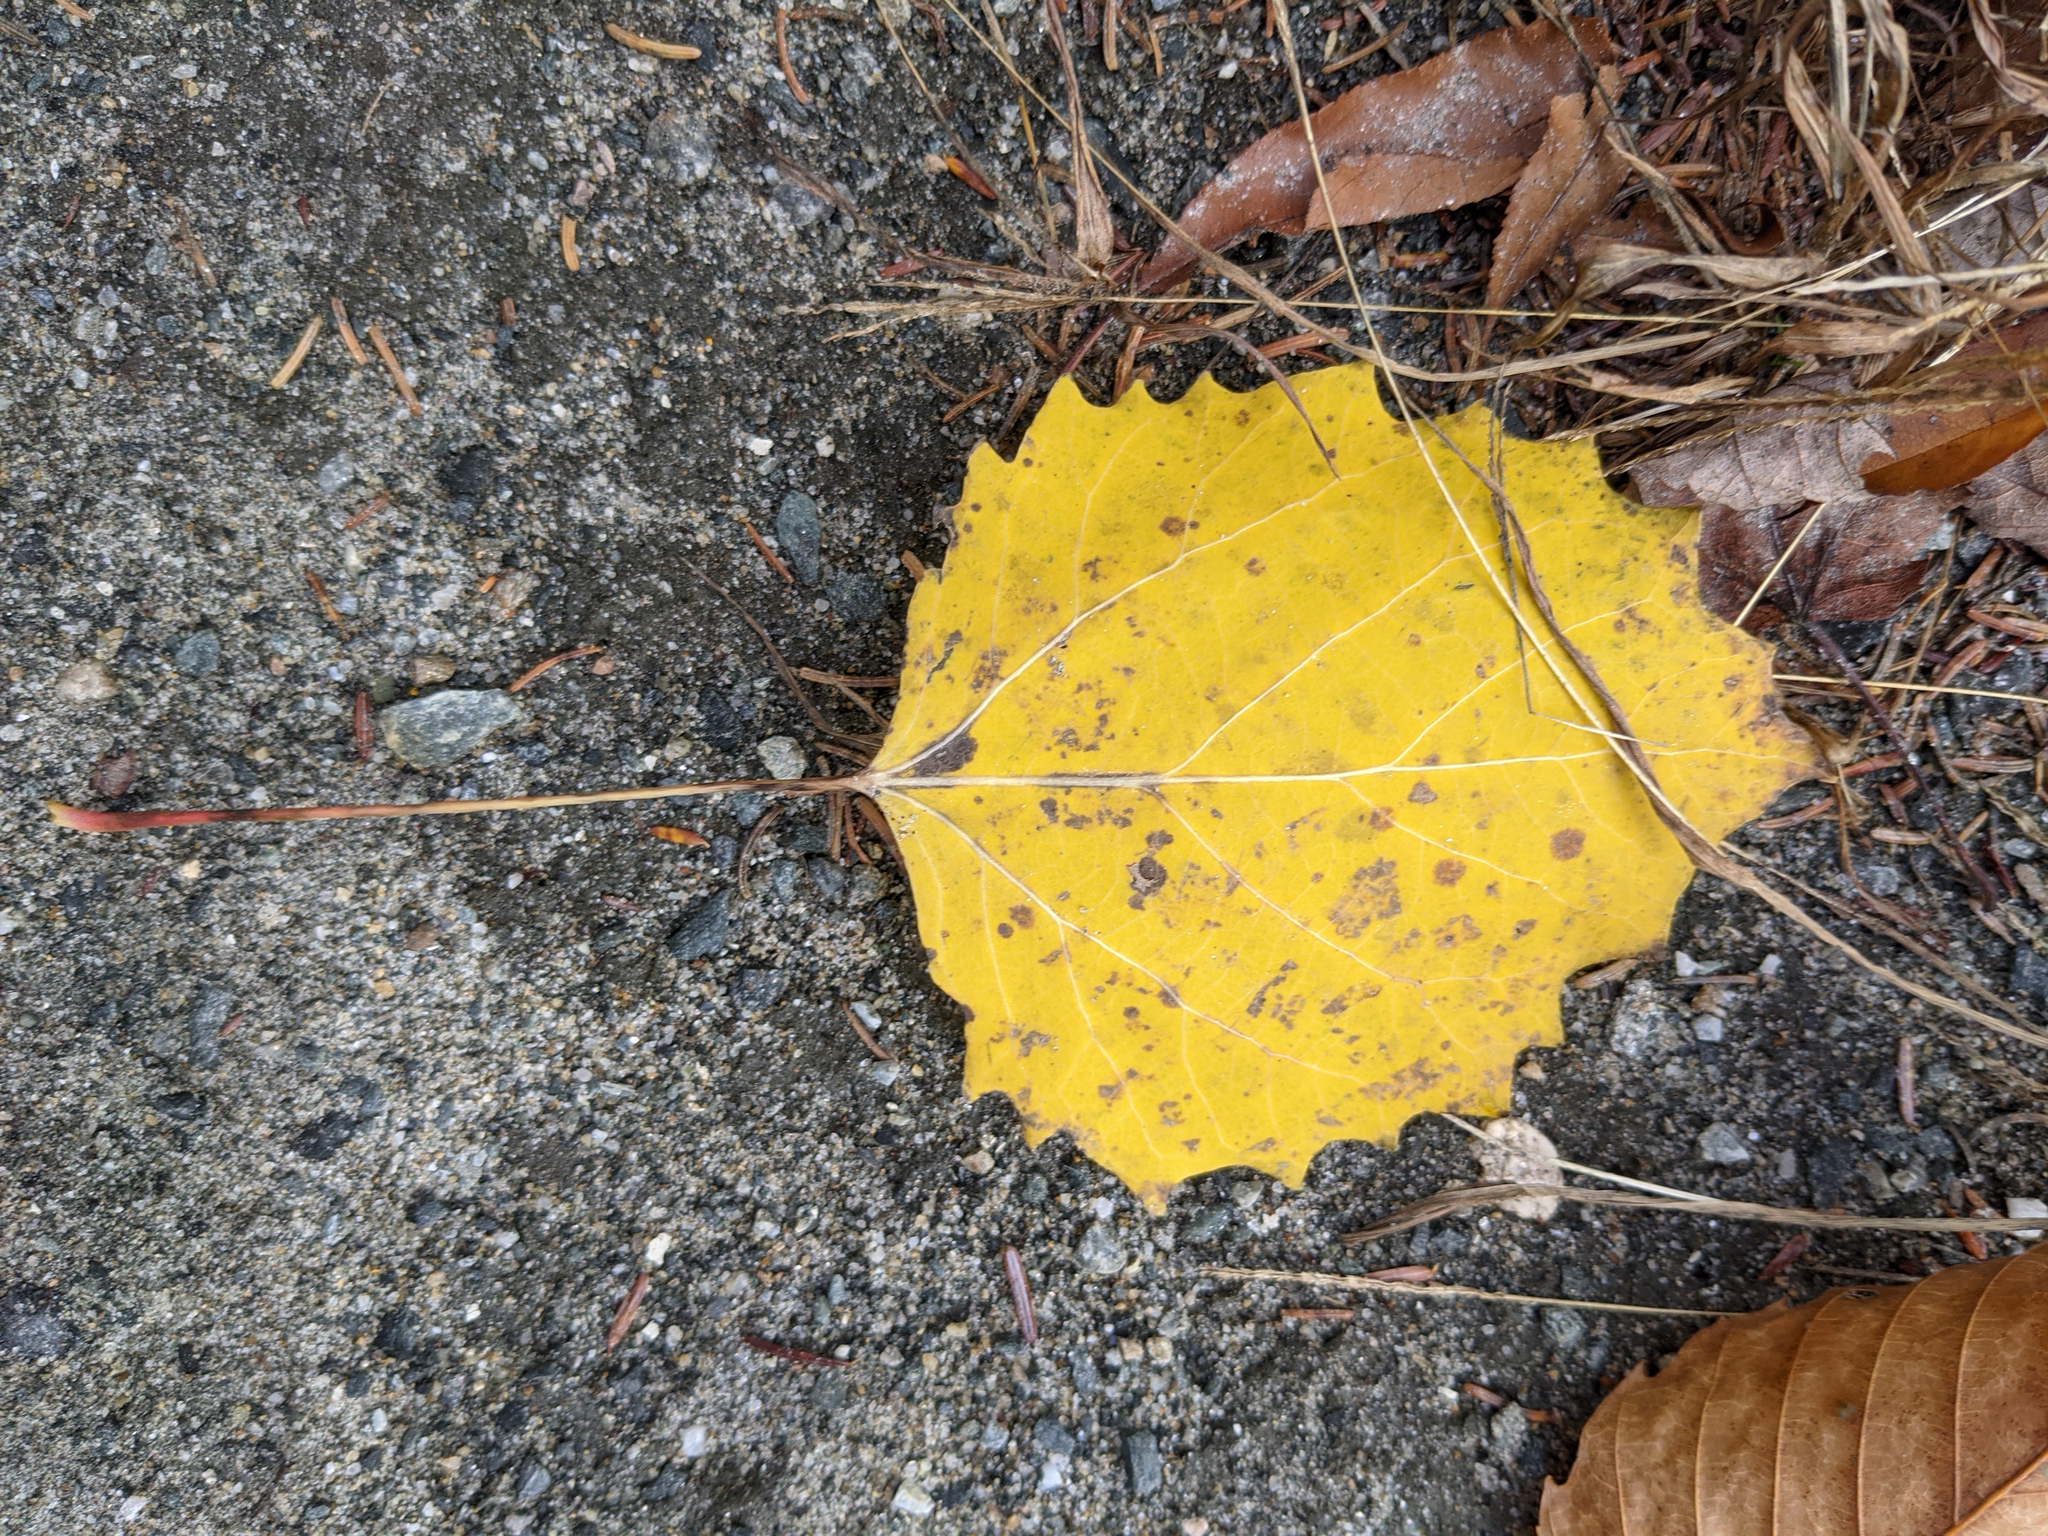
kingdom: Plantae
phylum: Tracheophyta
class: Magnoliopsida
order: Malpighiales
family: Salicaceae
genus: Populus
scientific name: Populus grandidentata
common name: Bigtooth aspen
